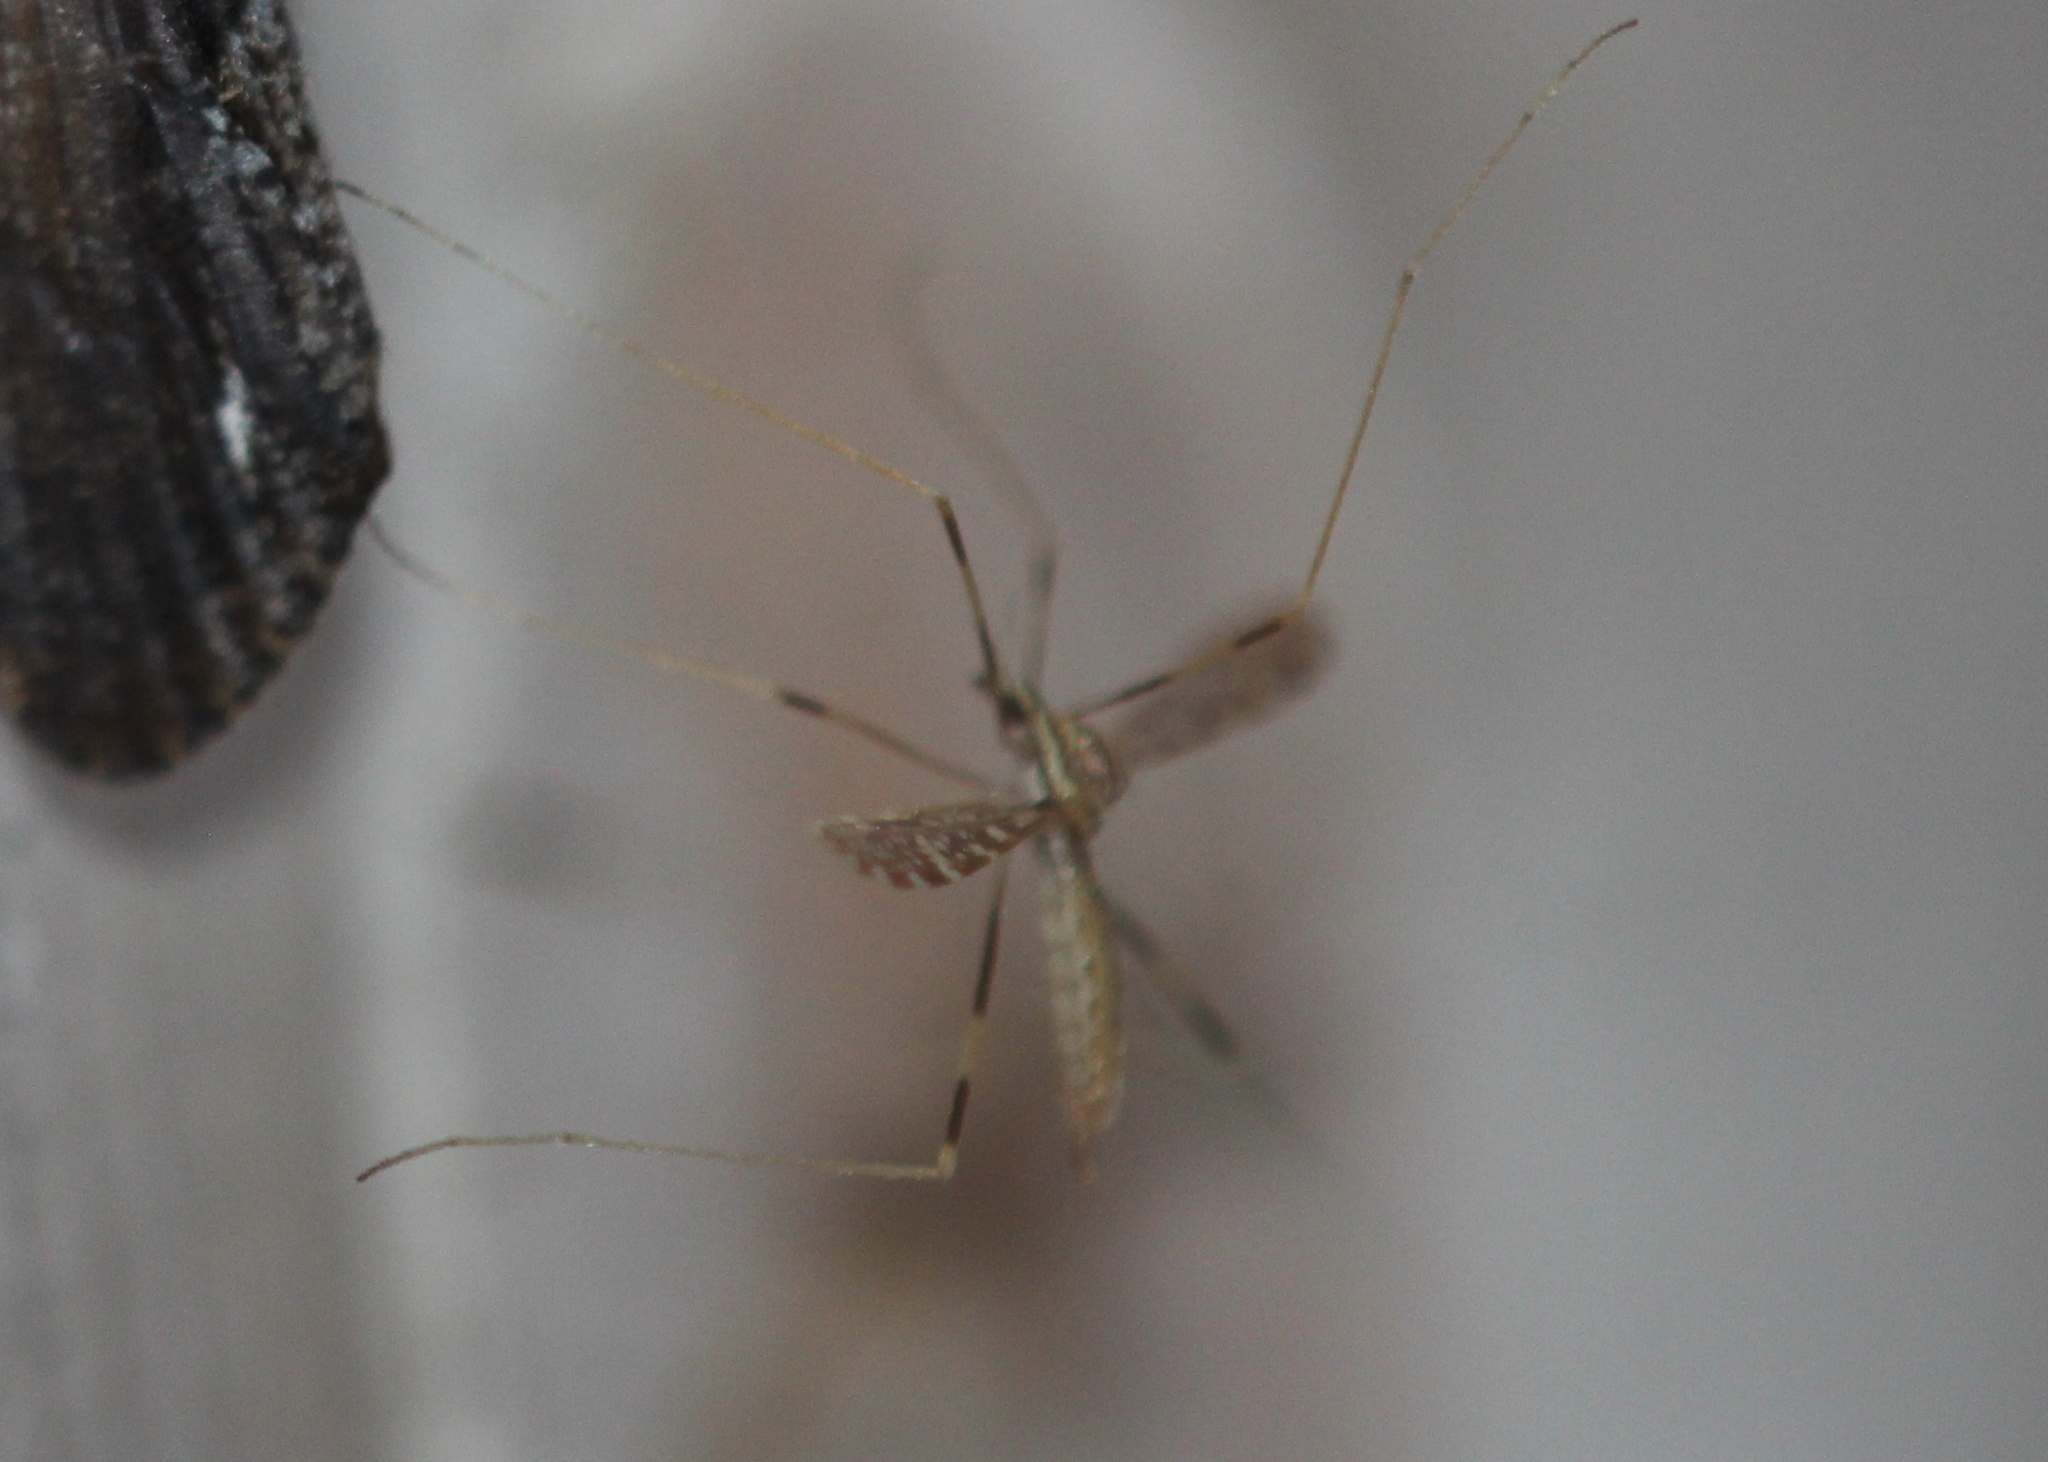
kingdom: Animalia
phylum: Arthropoda
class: Insecta
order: Diptera
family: Limoniidae
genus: Erioptera
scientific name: Erioptera caliptera
